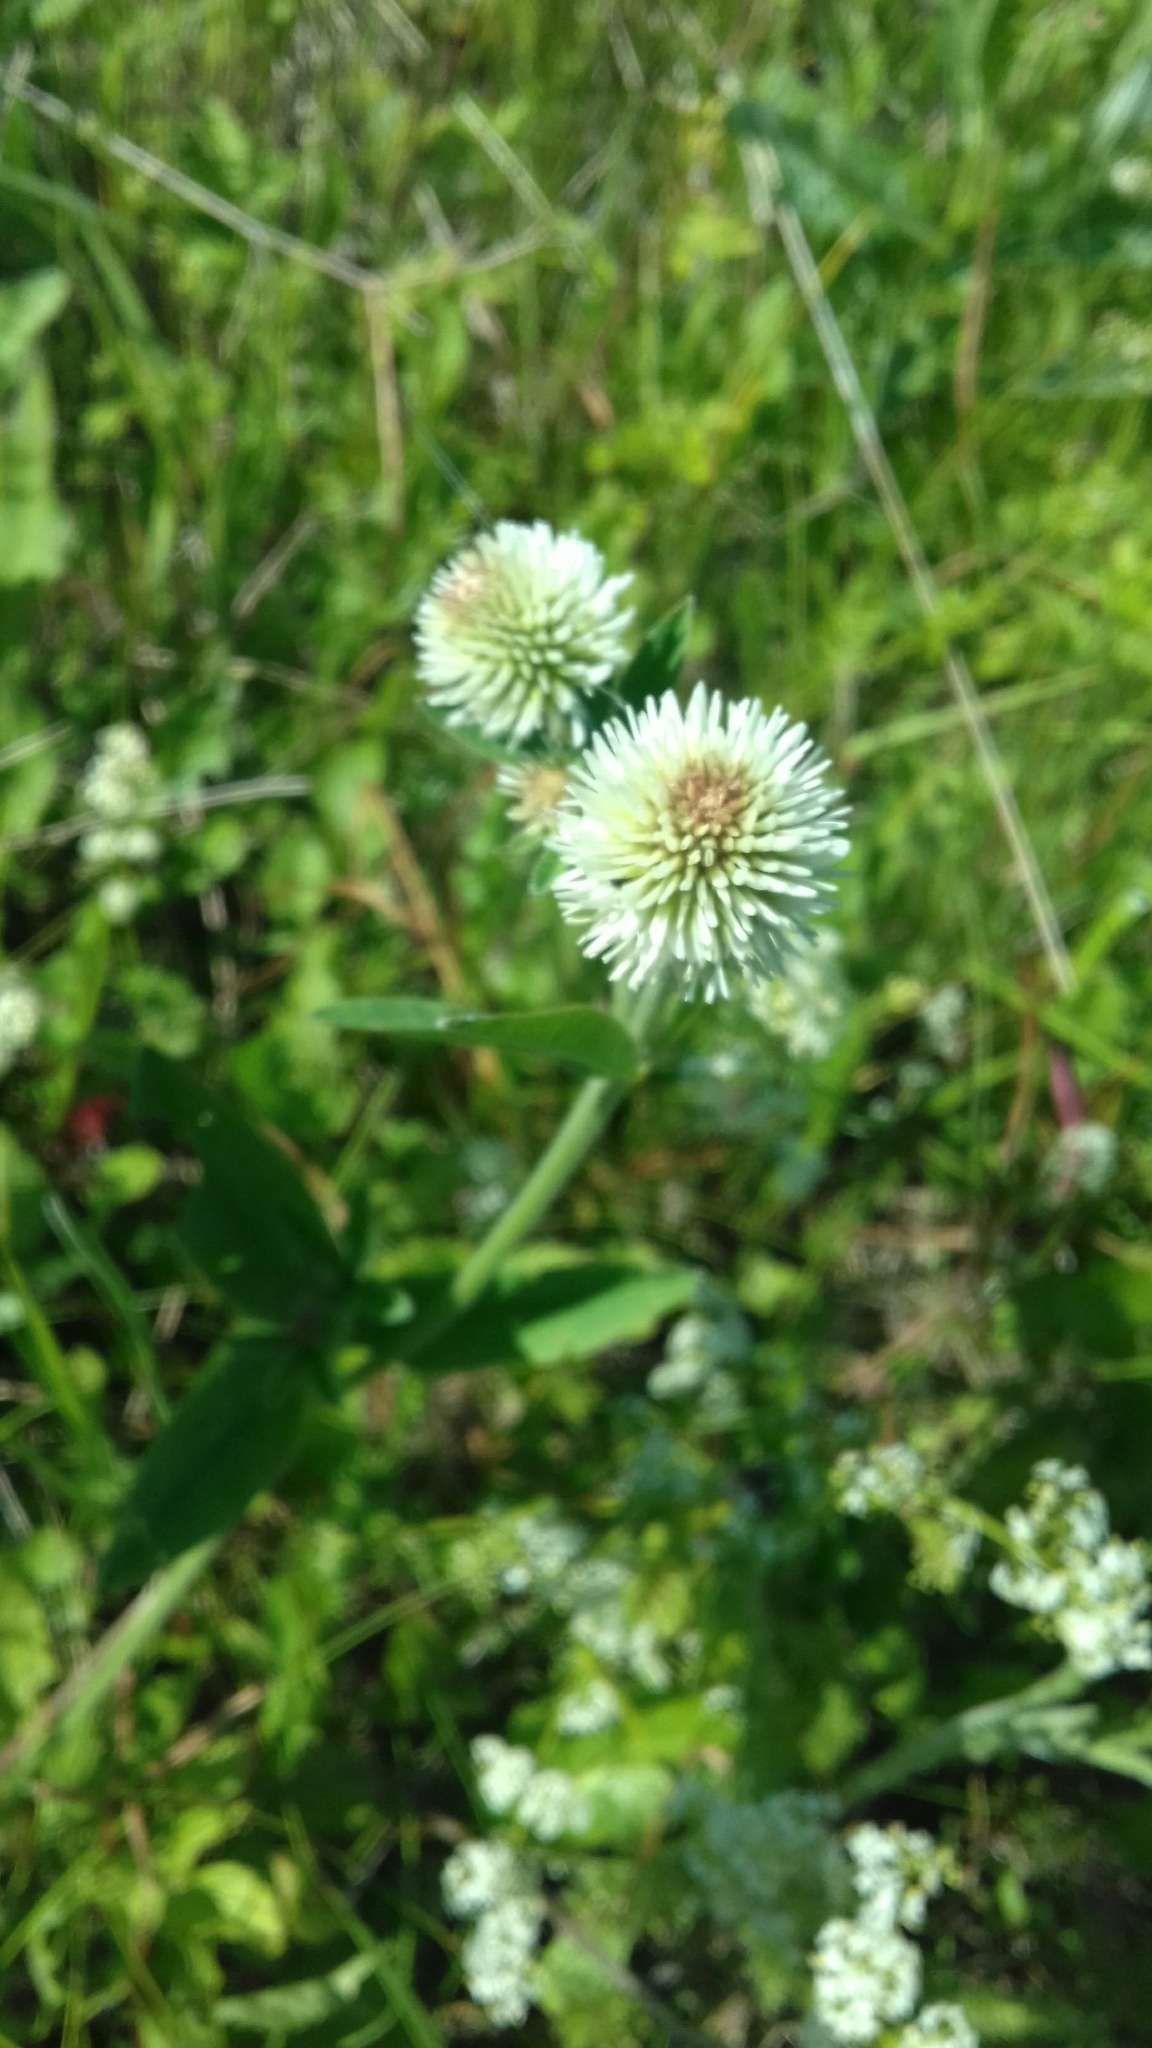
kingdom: Plantae
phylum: Tracheophyta
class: Magnoliopsida
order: Fabales
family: Fabaceae
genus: Trifolium
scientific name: Trifolium montanum
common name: Mountain clover
